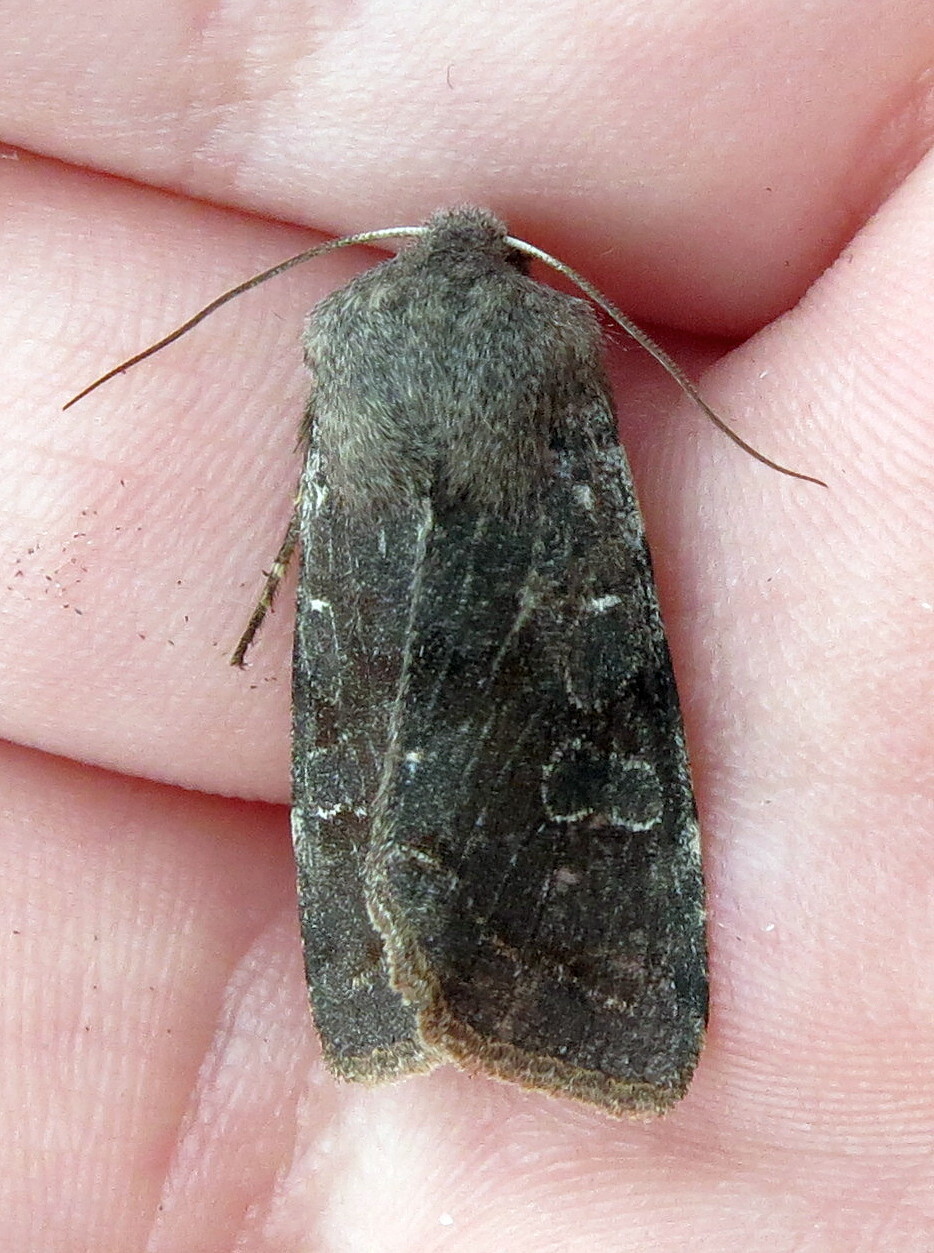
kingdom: Animalia
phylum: Arthropoda
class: Insecta
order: Lepidoptera
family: Noctuidae
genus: Orthosia
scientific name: Orthosia incerta
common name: Clouded drab
